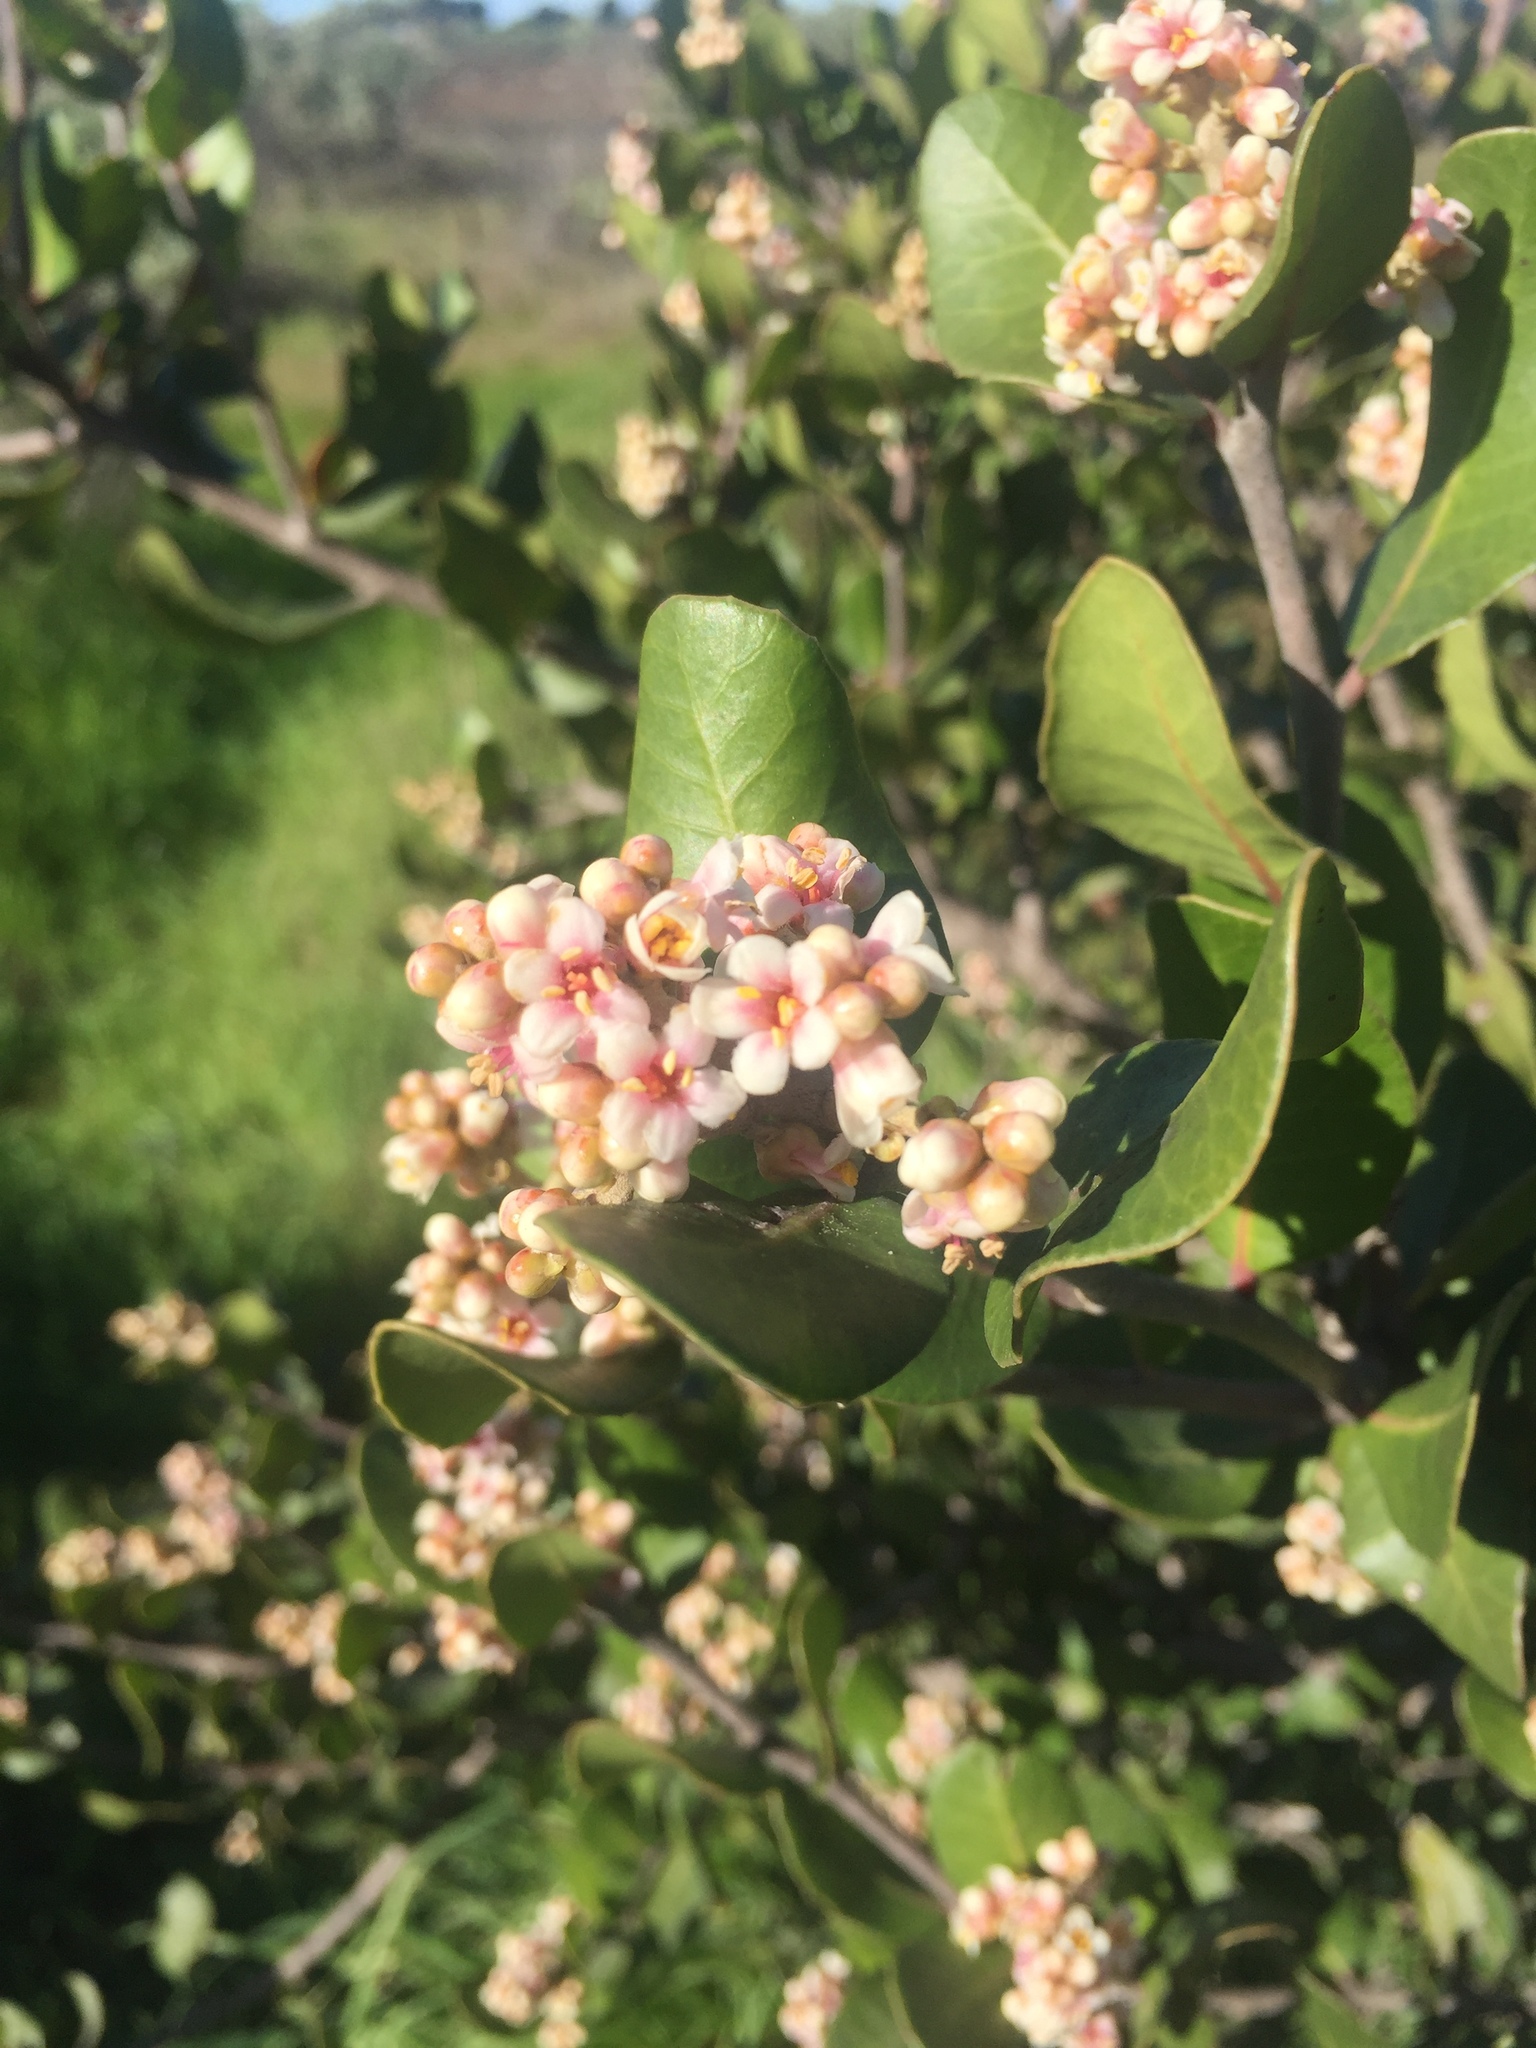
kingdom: Plantae
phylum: Tracheophyta
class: Magnoliopsida
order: Sapindales
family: Anacardiaceae
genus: Rhus
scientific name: Rhus integrifolia
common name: Lemonade sumac
